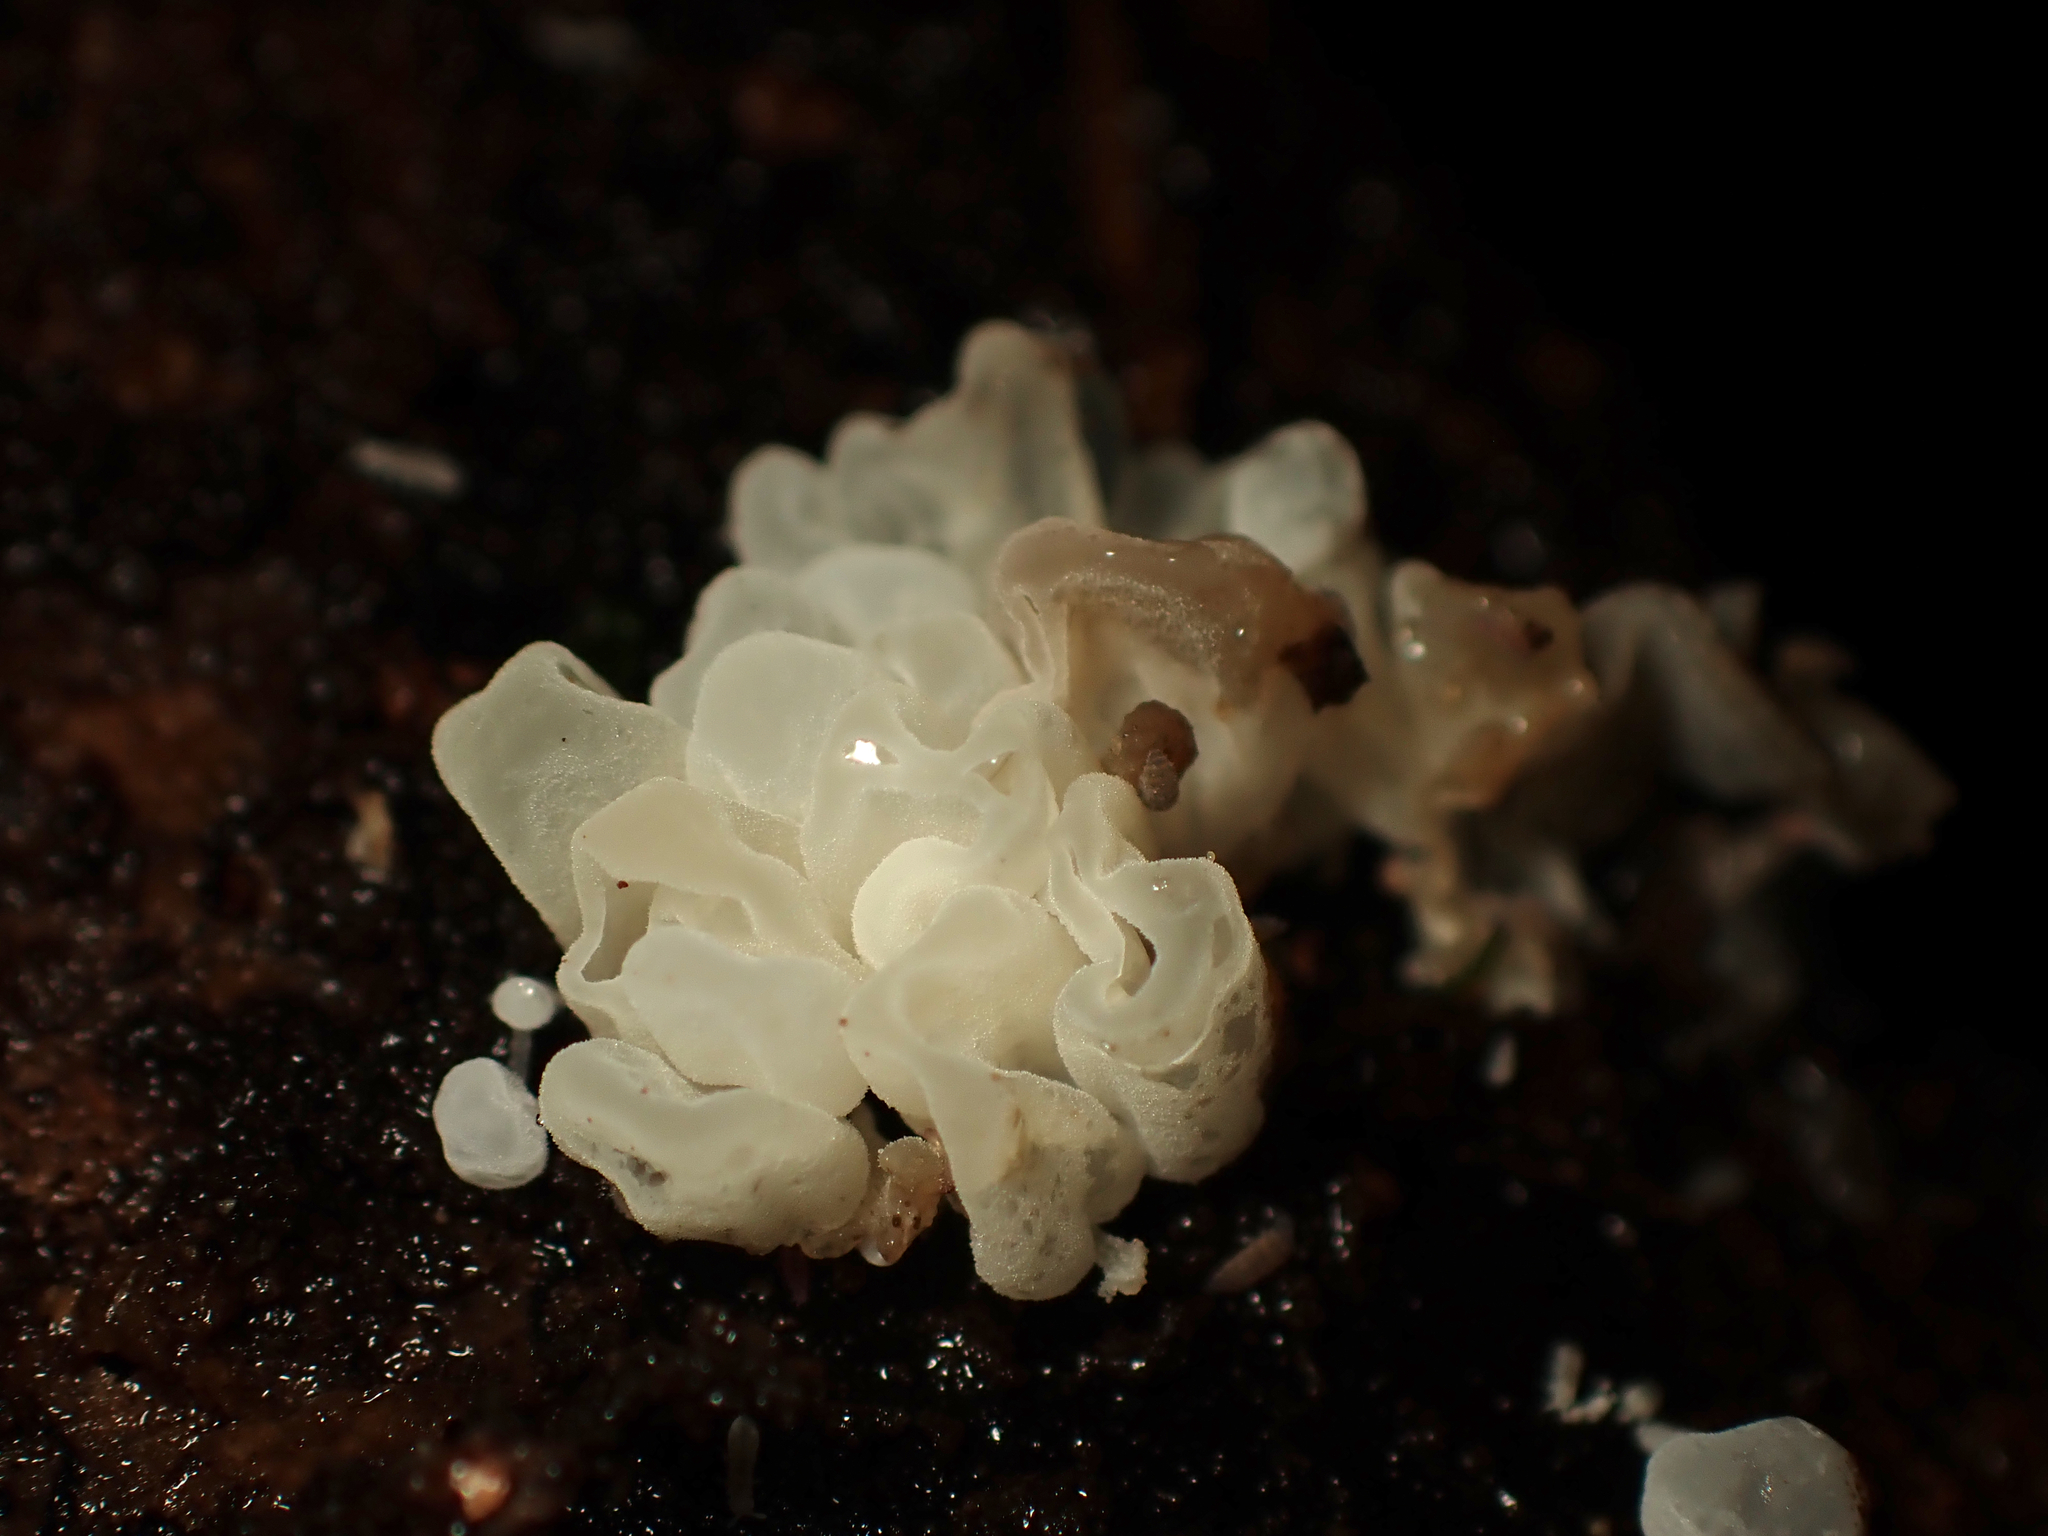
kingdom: Fungi
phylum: Basidiomycota
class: Tremellomycetes
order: Tremellales
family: Tremellaceae
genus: Tremella
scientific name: Tremella fuciformis
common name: Snow fungus
